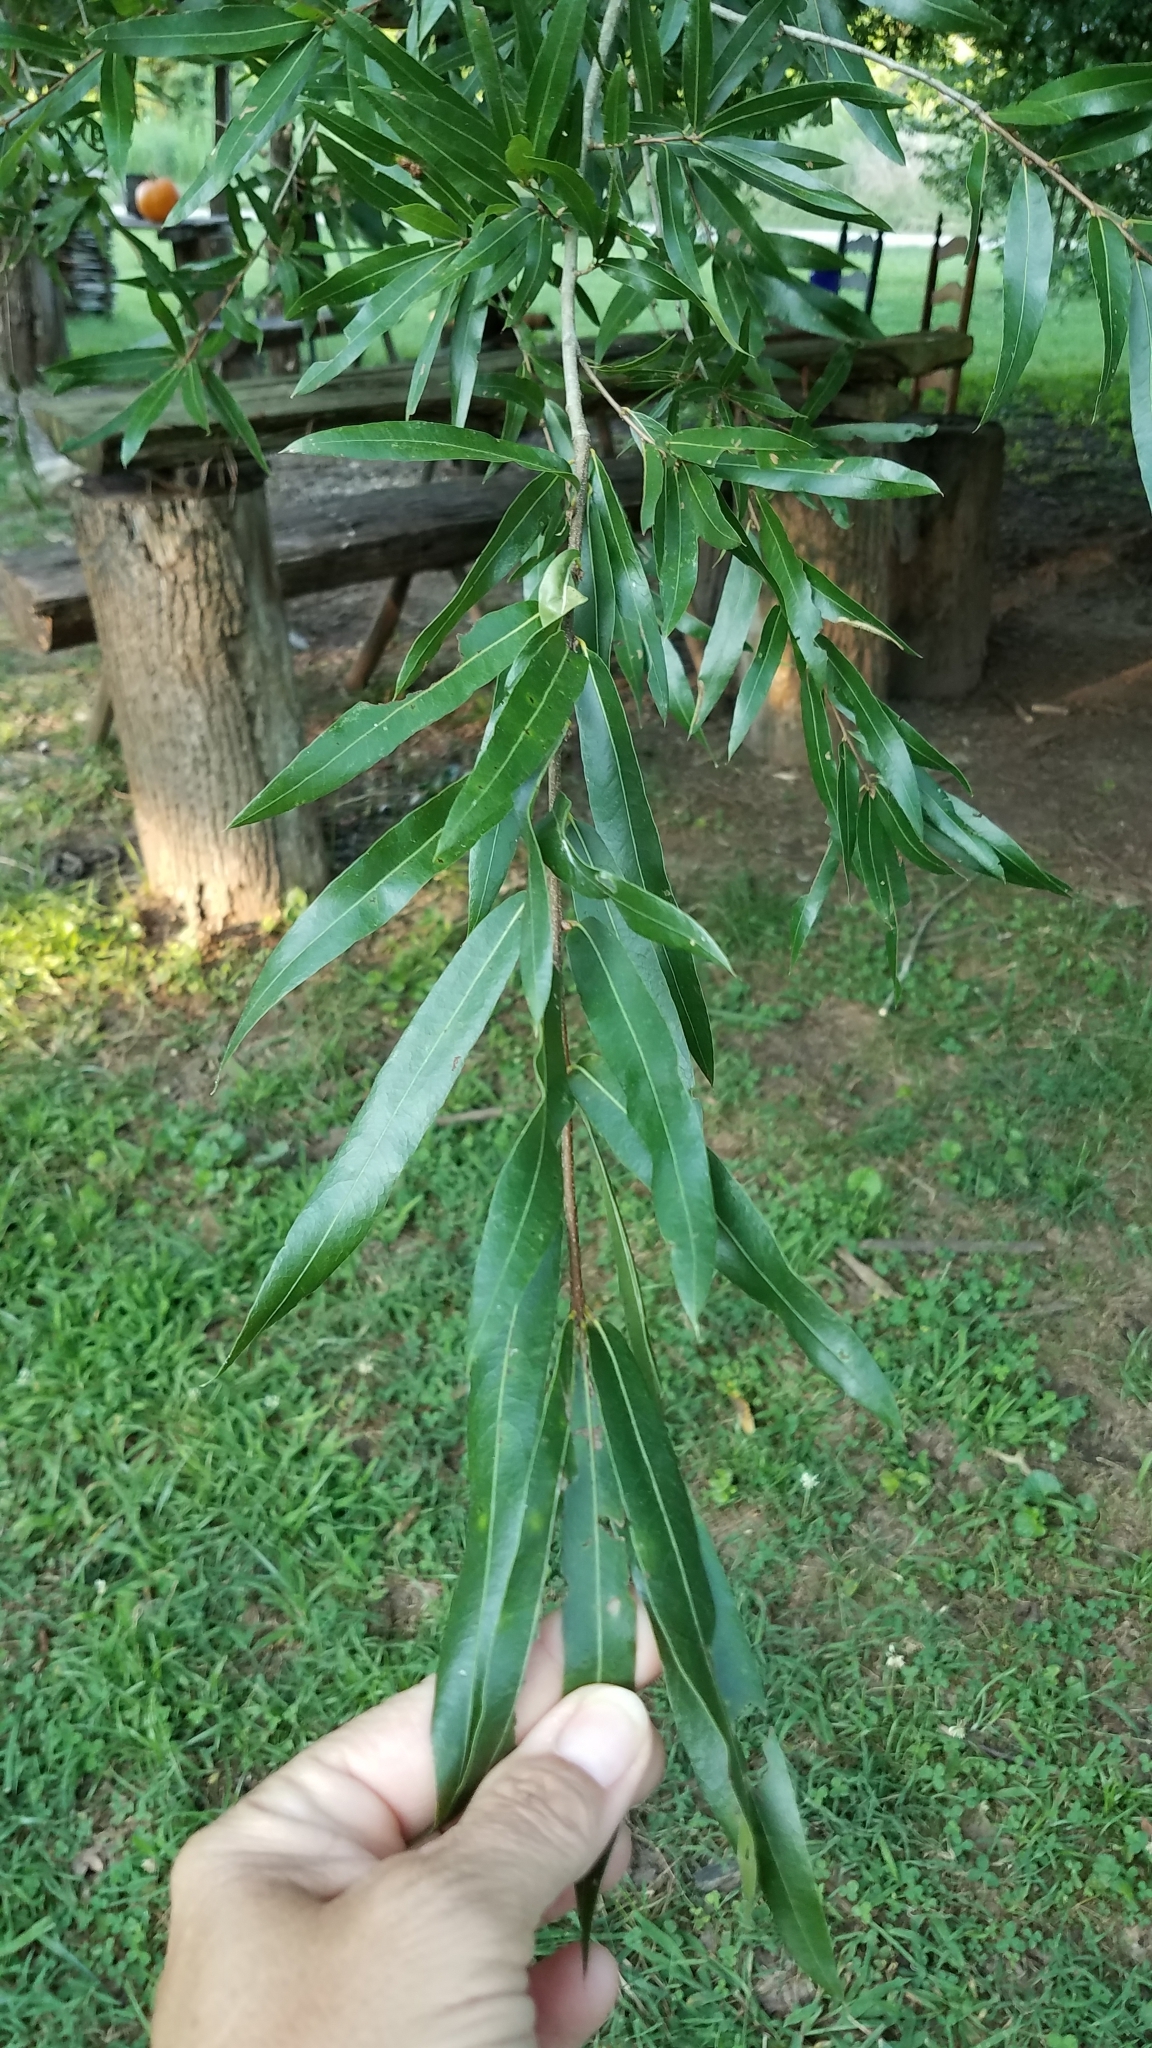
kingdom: Plantae
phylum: Tracheophyta
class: Magnoliopsida
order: Fagales
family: Fagaceae
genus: Quercus
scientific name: Quercus phellos
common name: Willow oak
